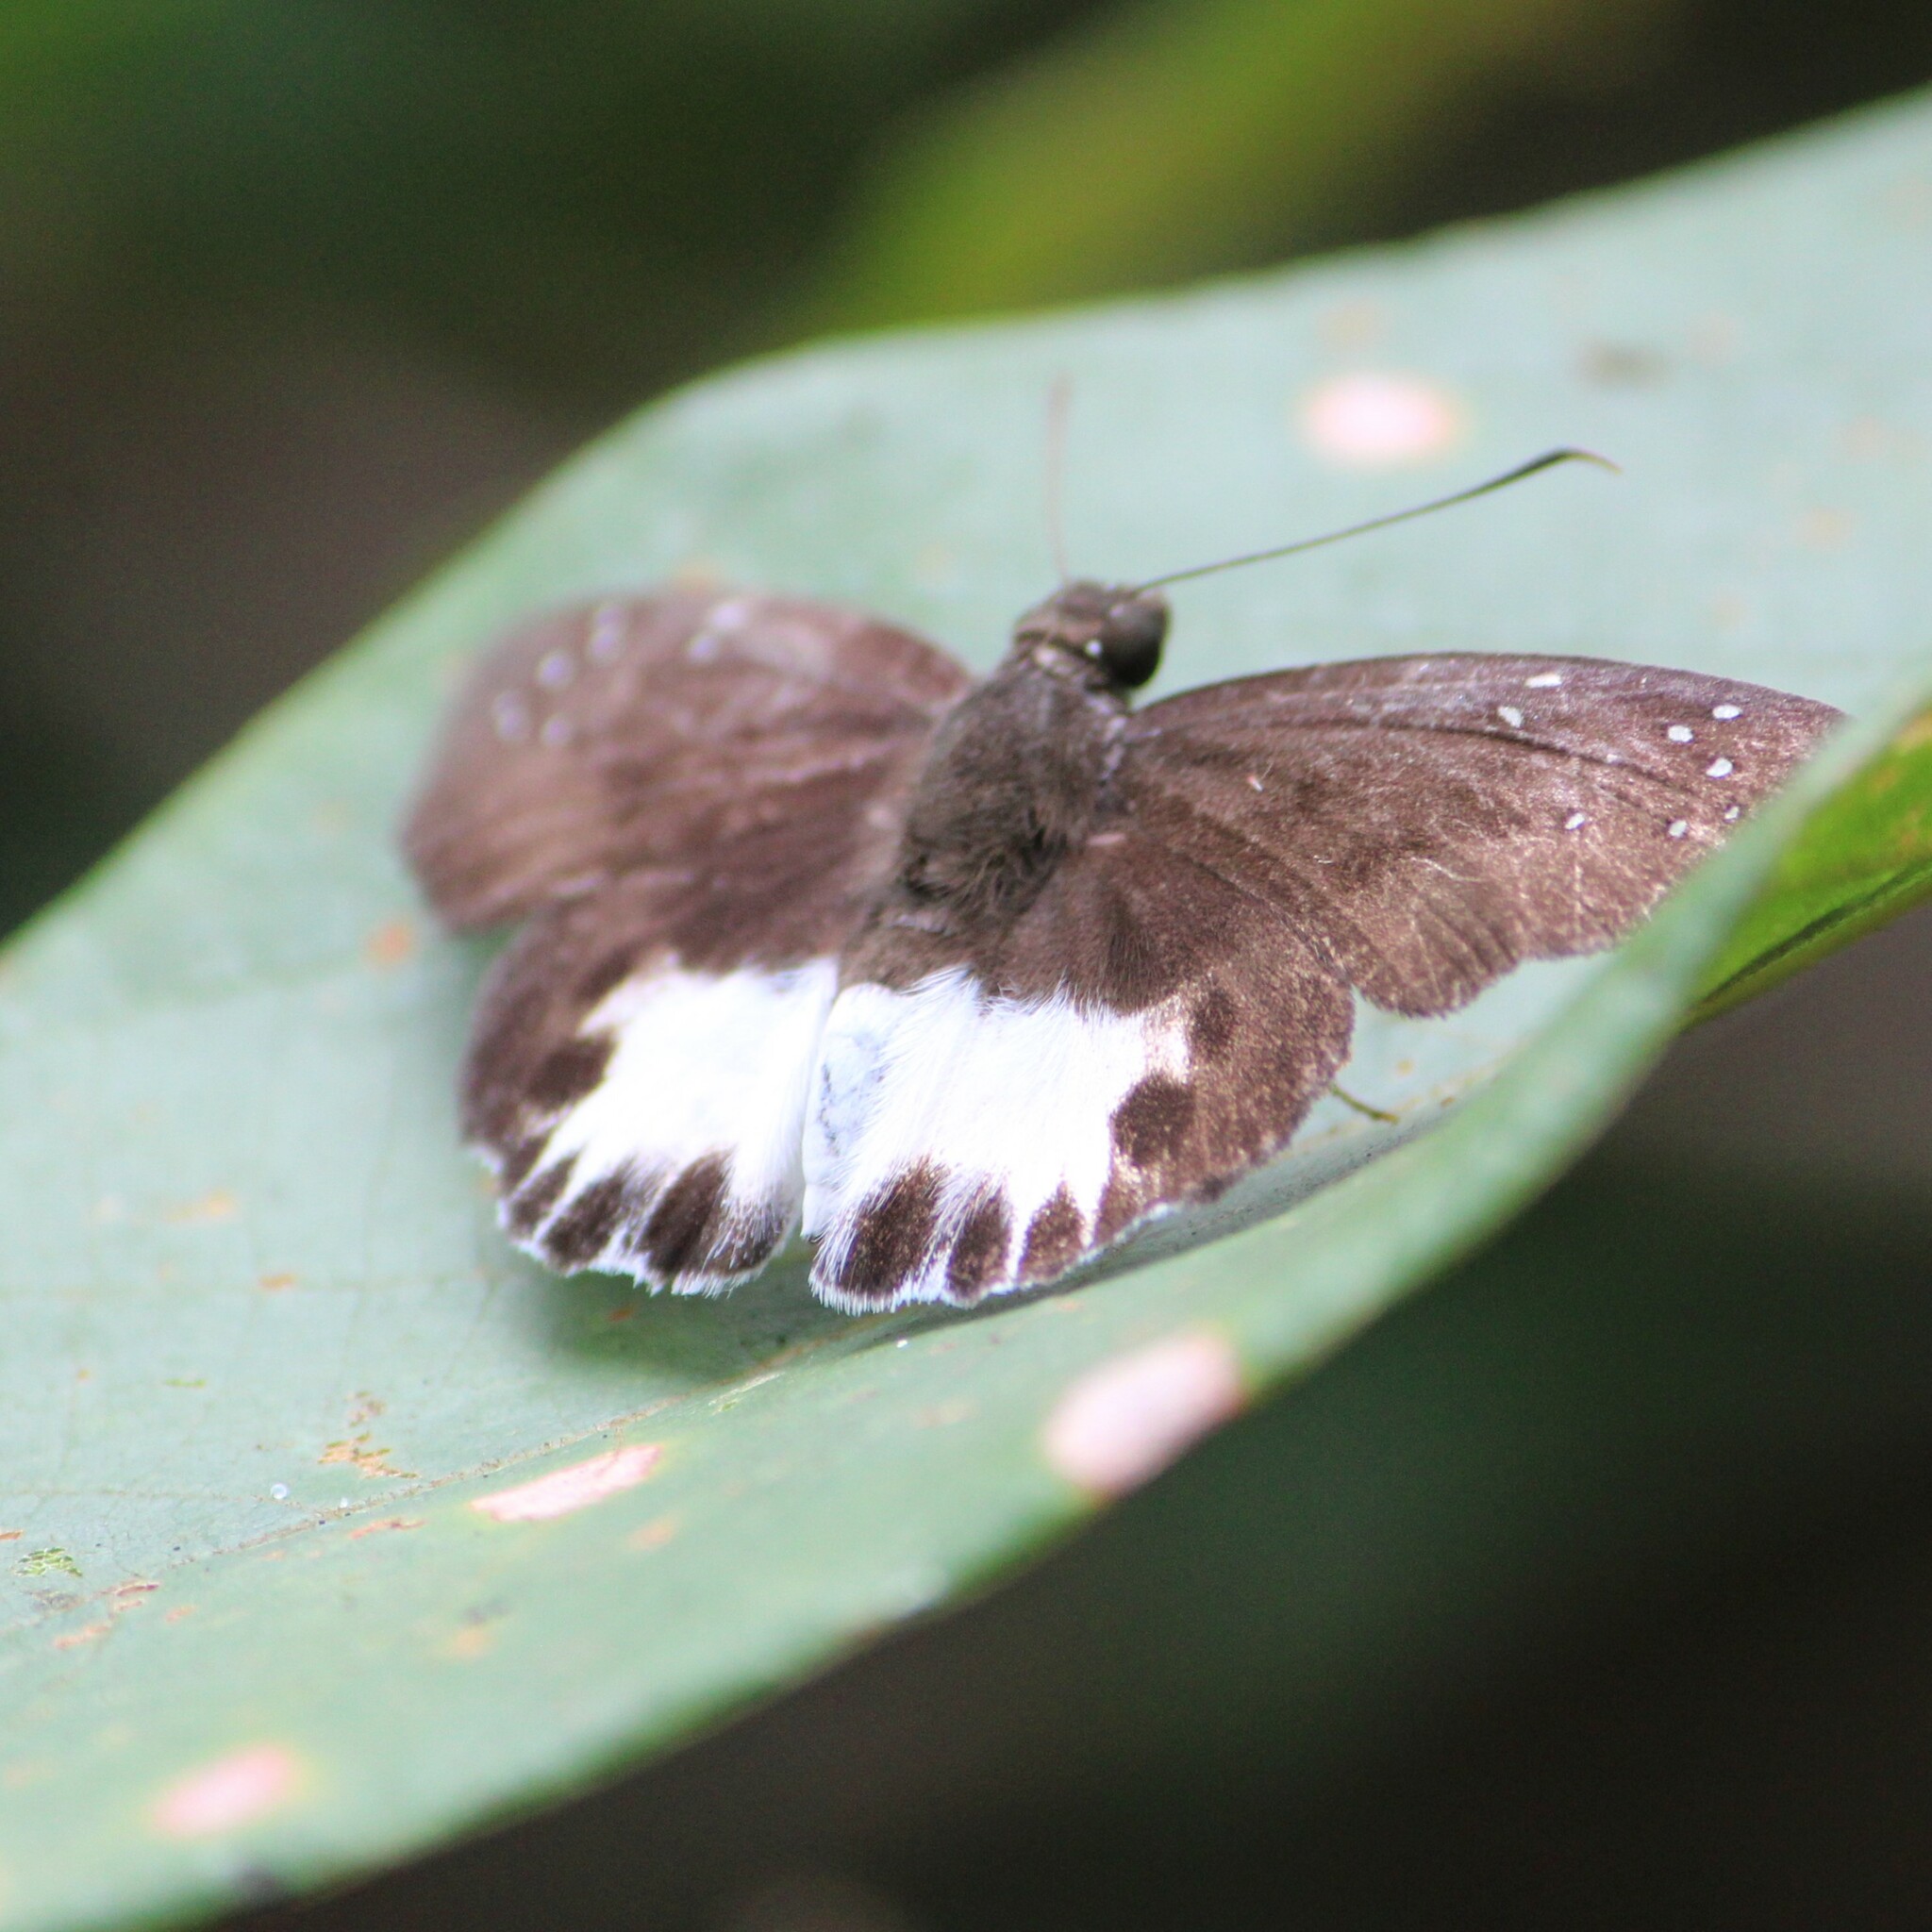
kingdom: Animalia
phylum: Arthropoda
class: Insecta
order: Lepidoptera
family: Hesperiidae
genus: Tagiades
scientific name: Tagiades litigiosa
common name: Water snow flat
